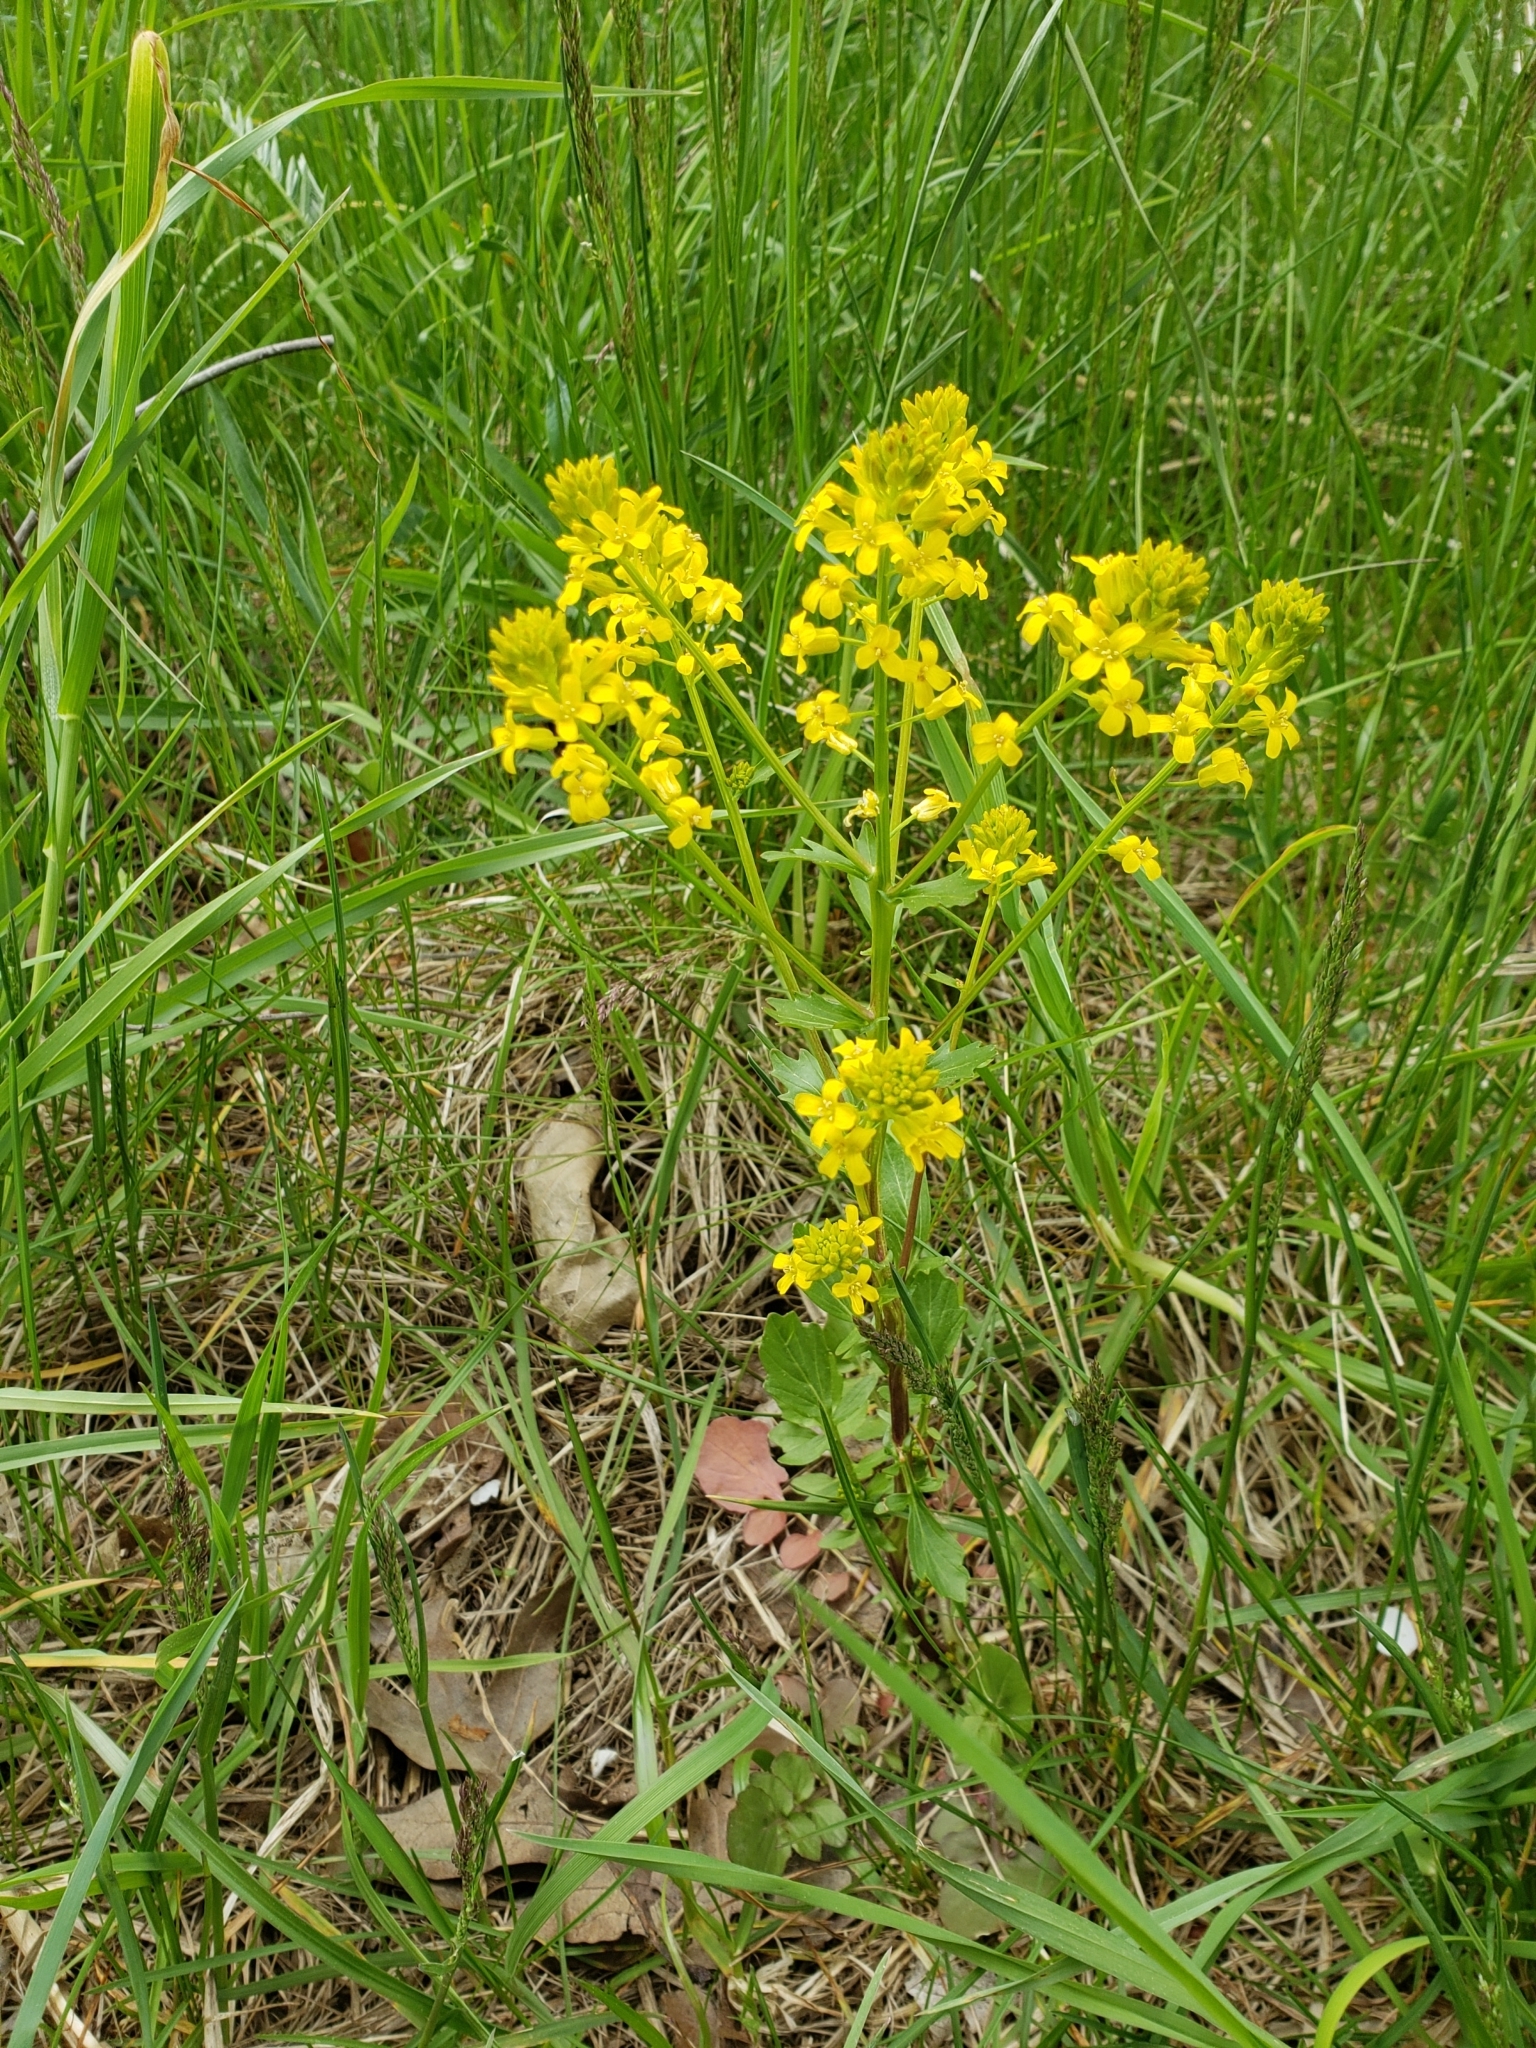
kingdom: Plantae
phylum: Tracheophyta
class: Magnoliopsida
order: Brassicales
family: Brassicaceae
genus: Barbarea
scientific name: Barbarea vulgaris
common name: Cressy-greens
